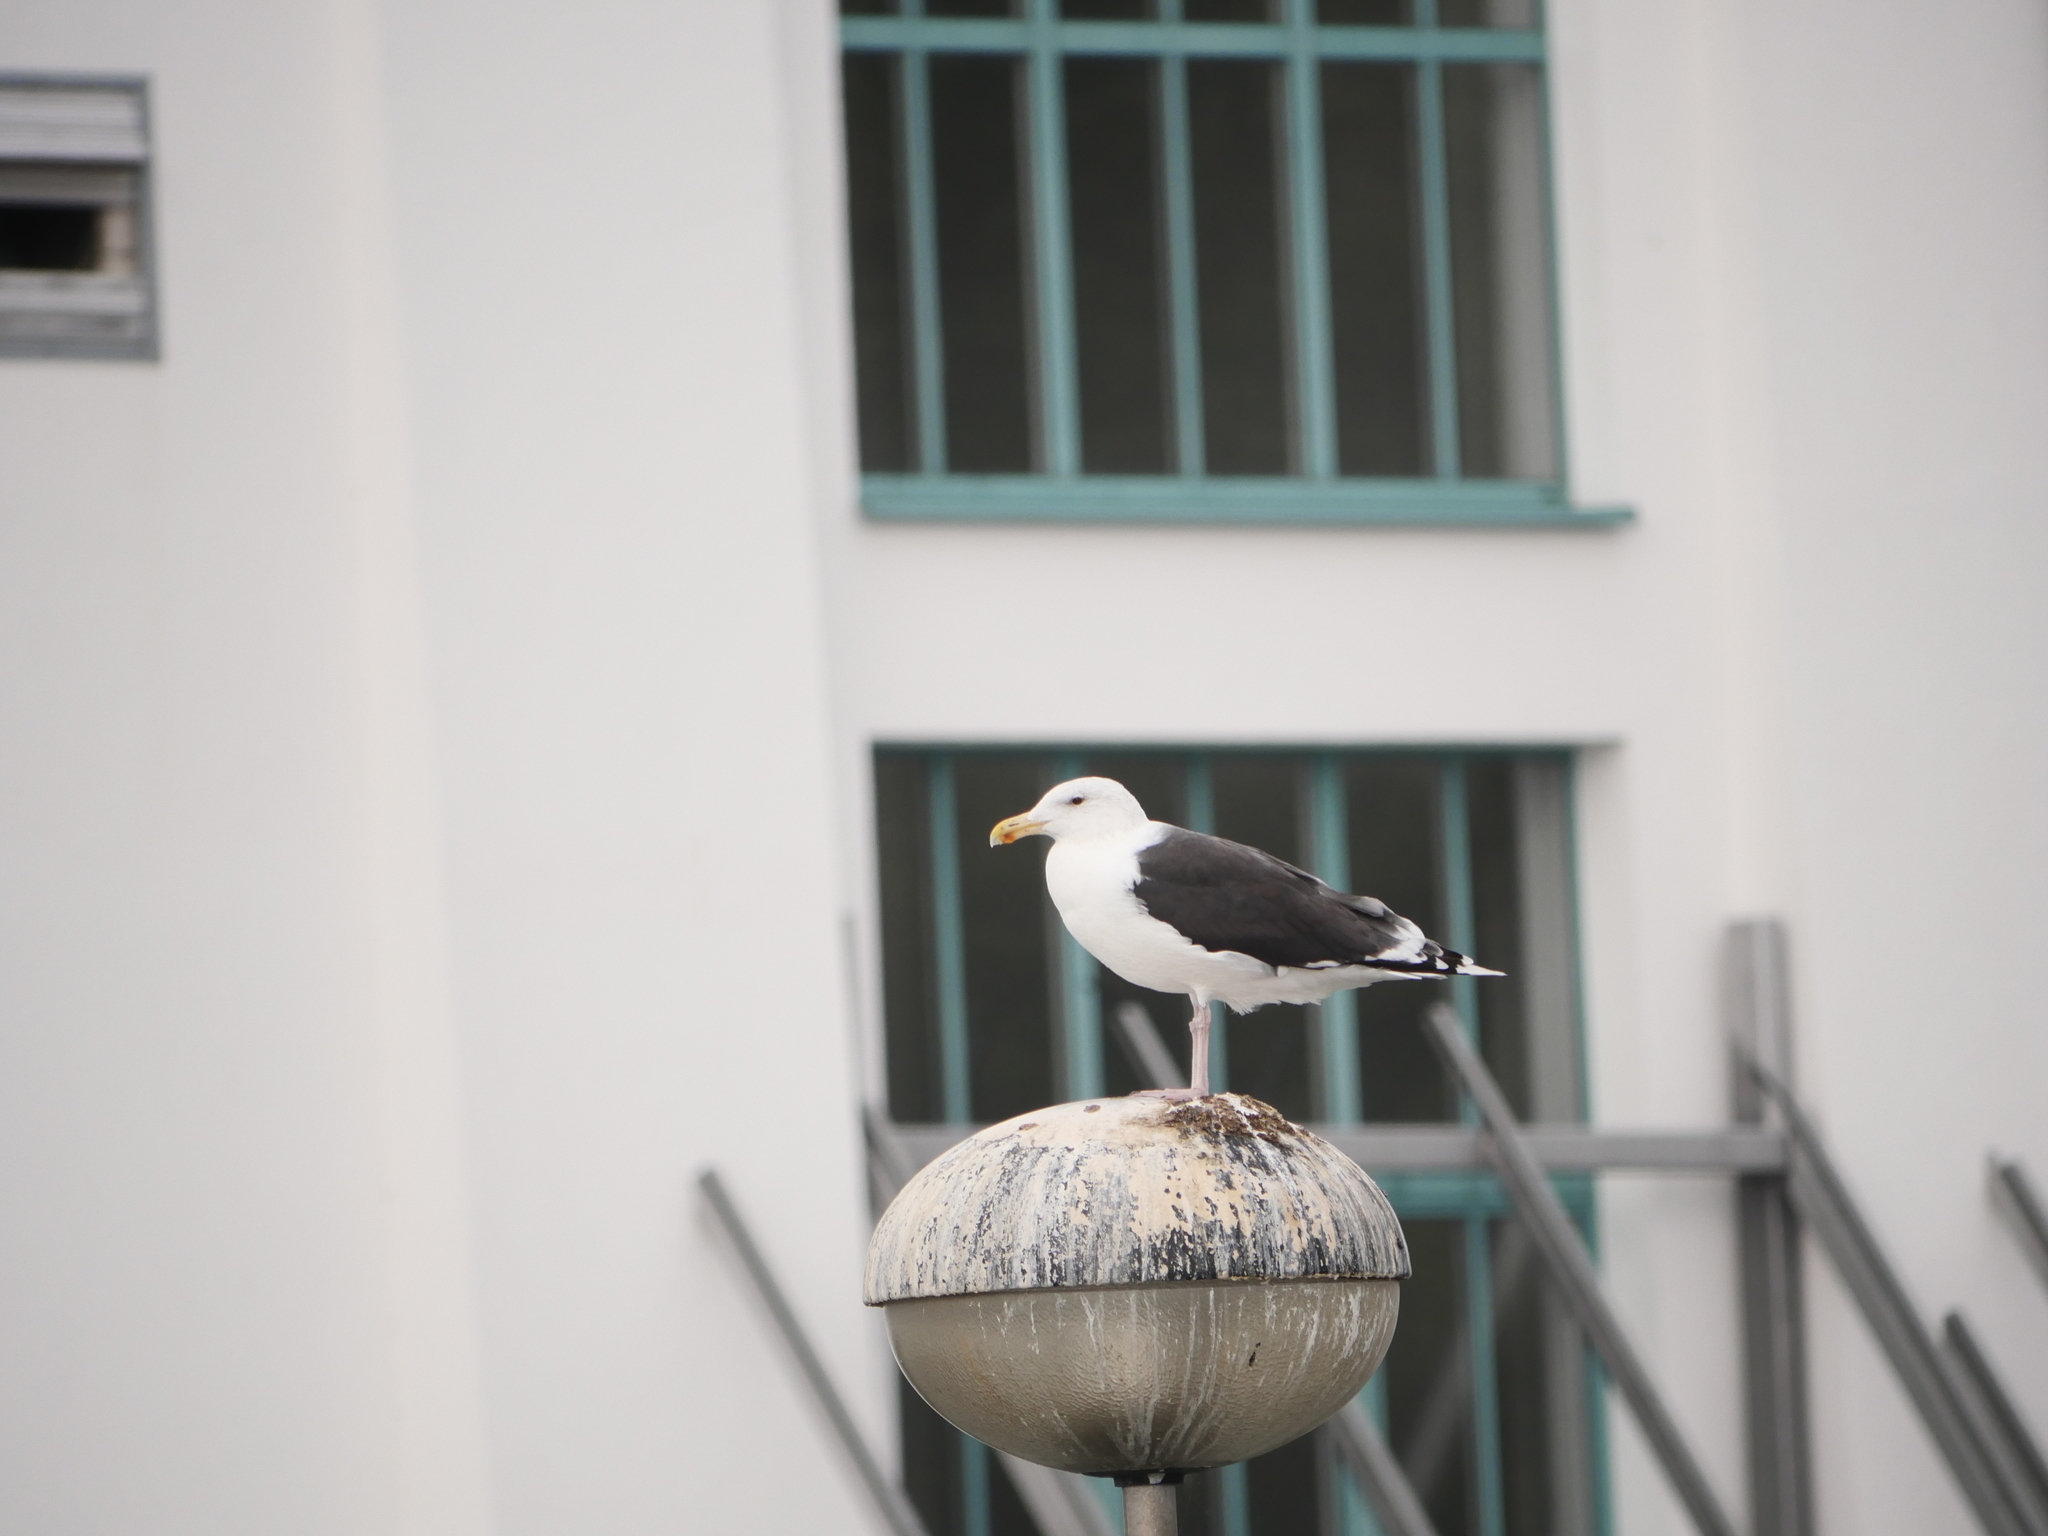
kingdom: Animalia
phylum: Chordata
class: Aves
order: Charadriiformes
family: Laridae
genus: Larus
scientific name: Larus marinus
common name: Great black-backed gull
